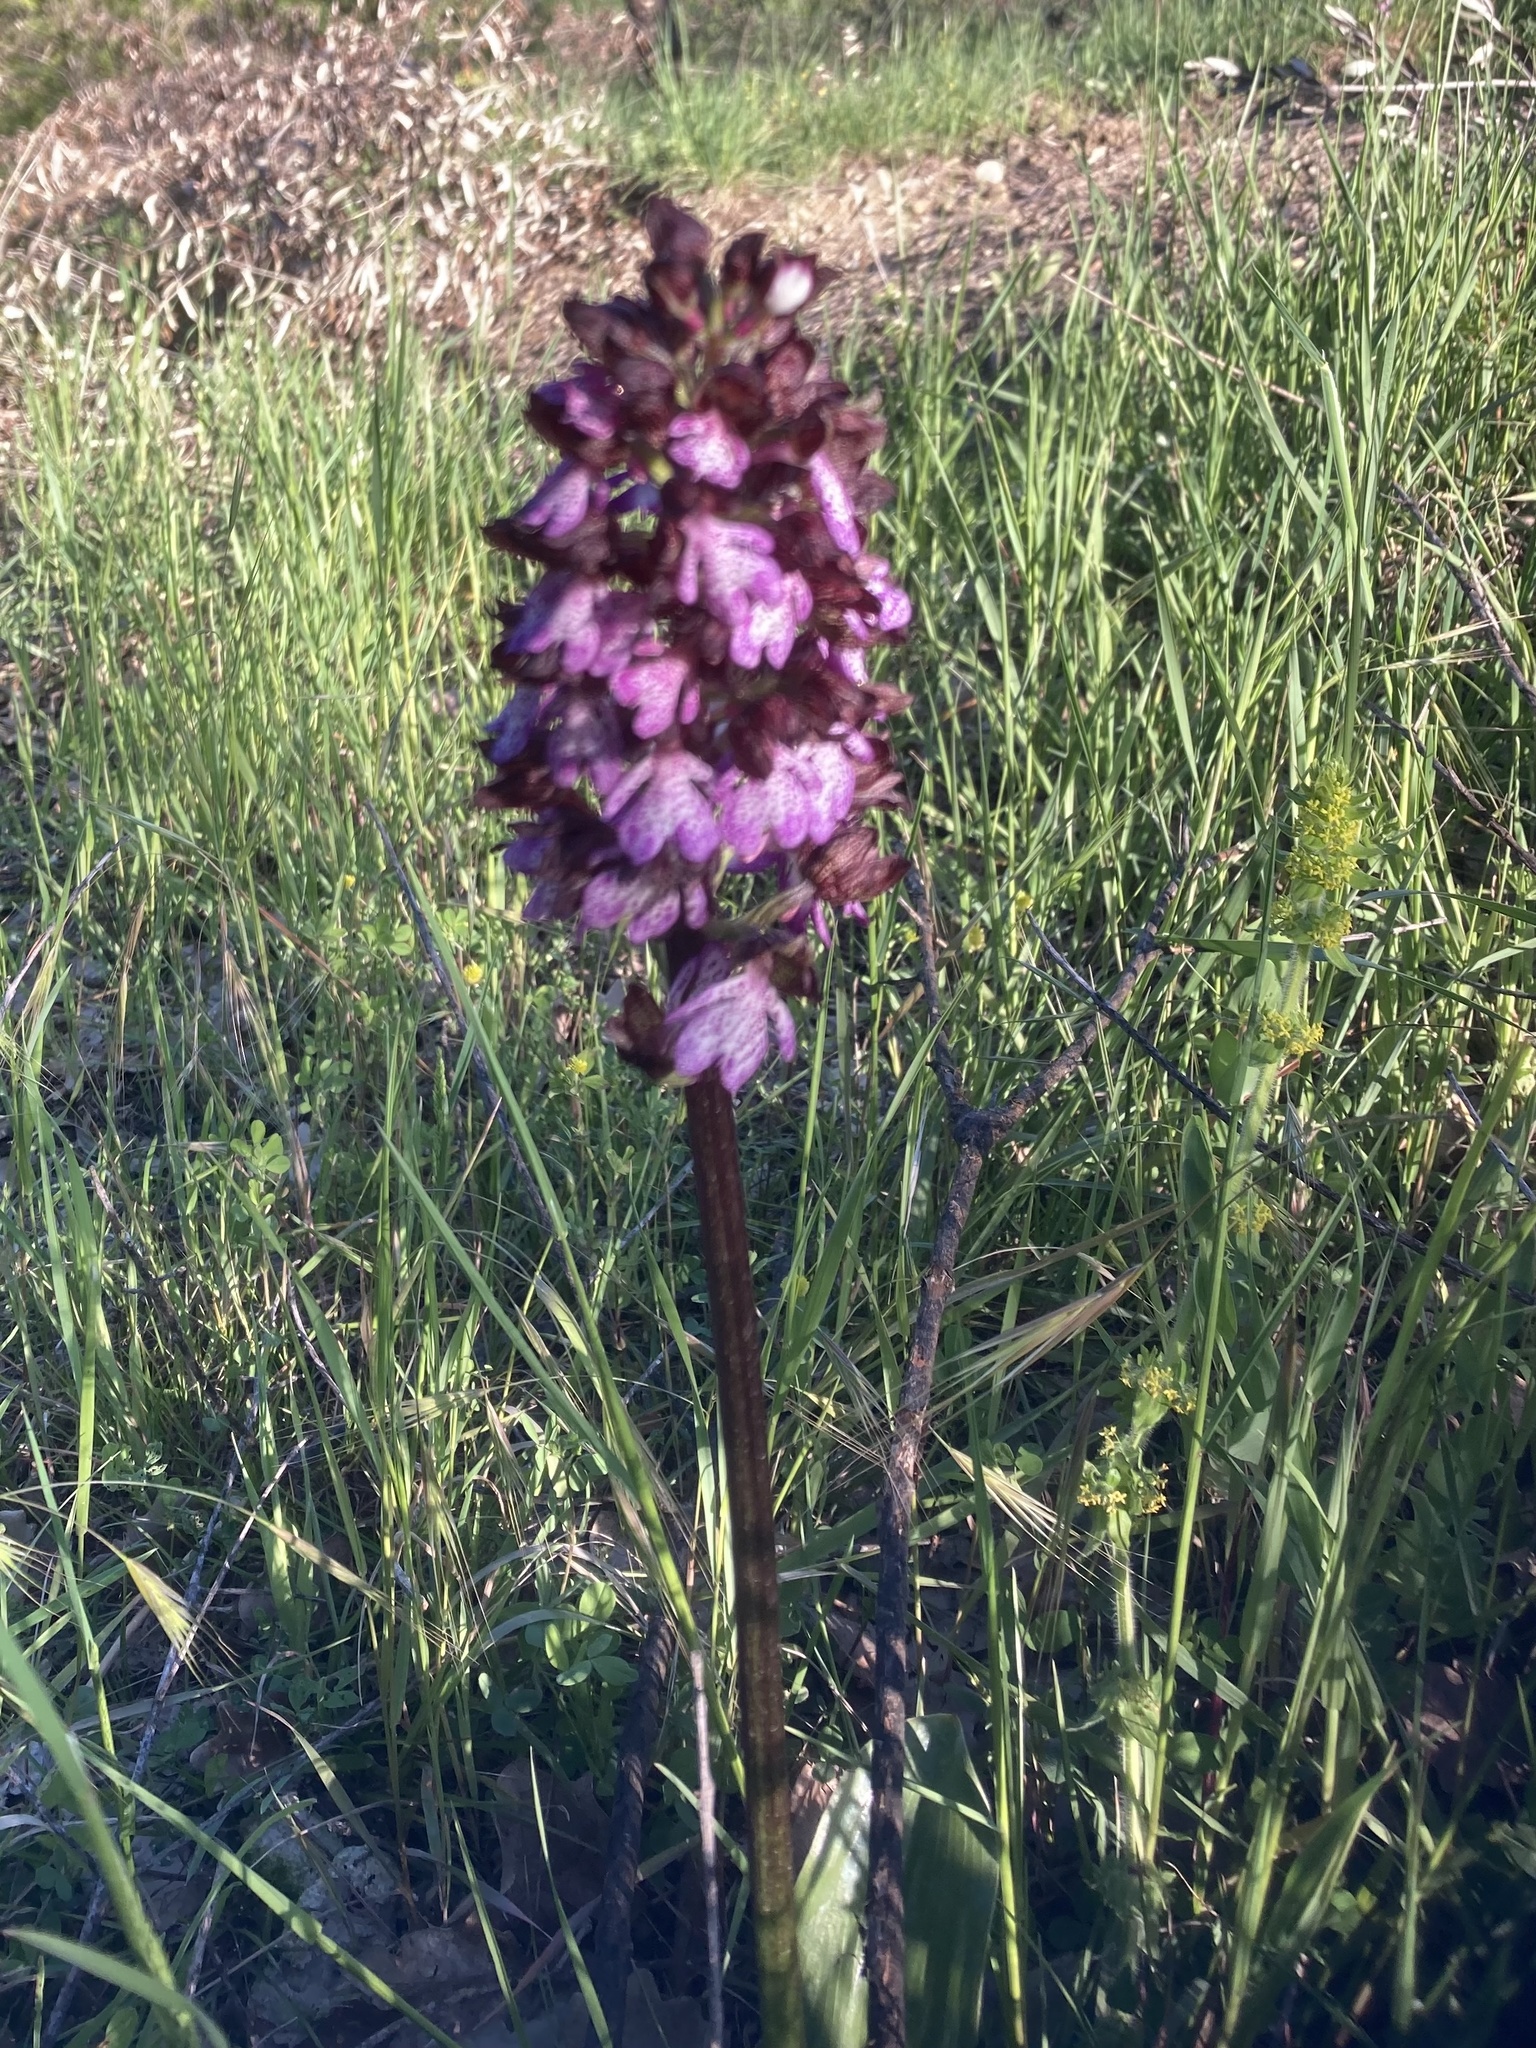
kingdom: Plantae
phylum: Tracheophyta
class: Liliopsida
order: Asparagales
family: Orchidaceae
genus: Orchis
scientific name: Orchis purpurea
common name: Lady orchid
